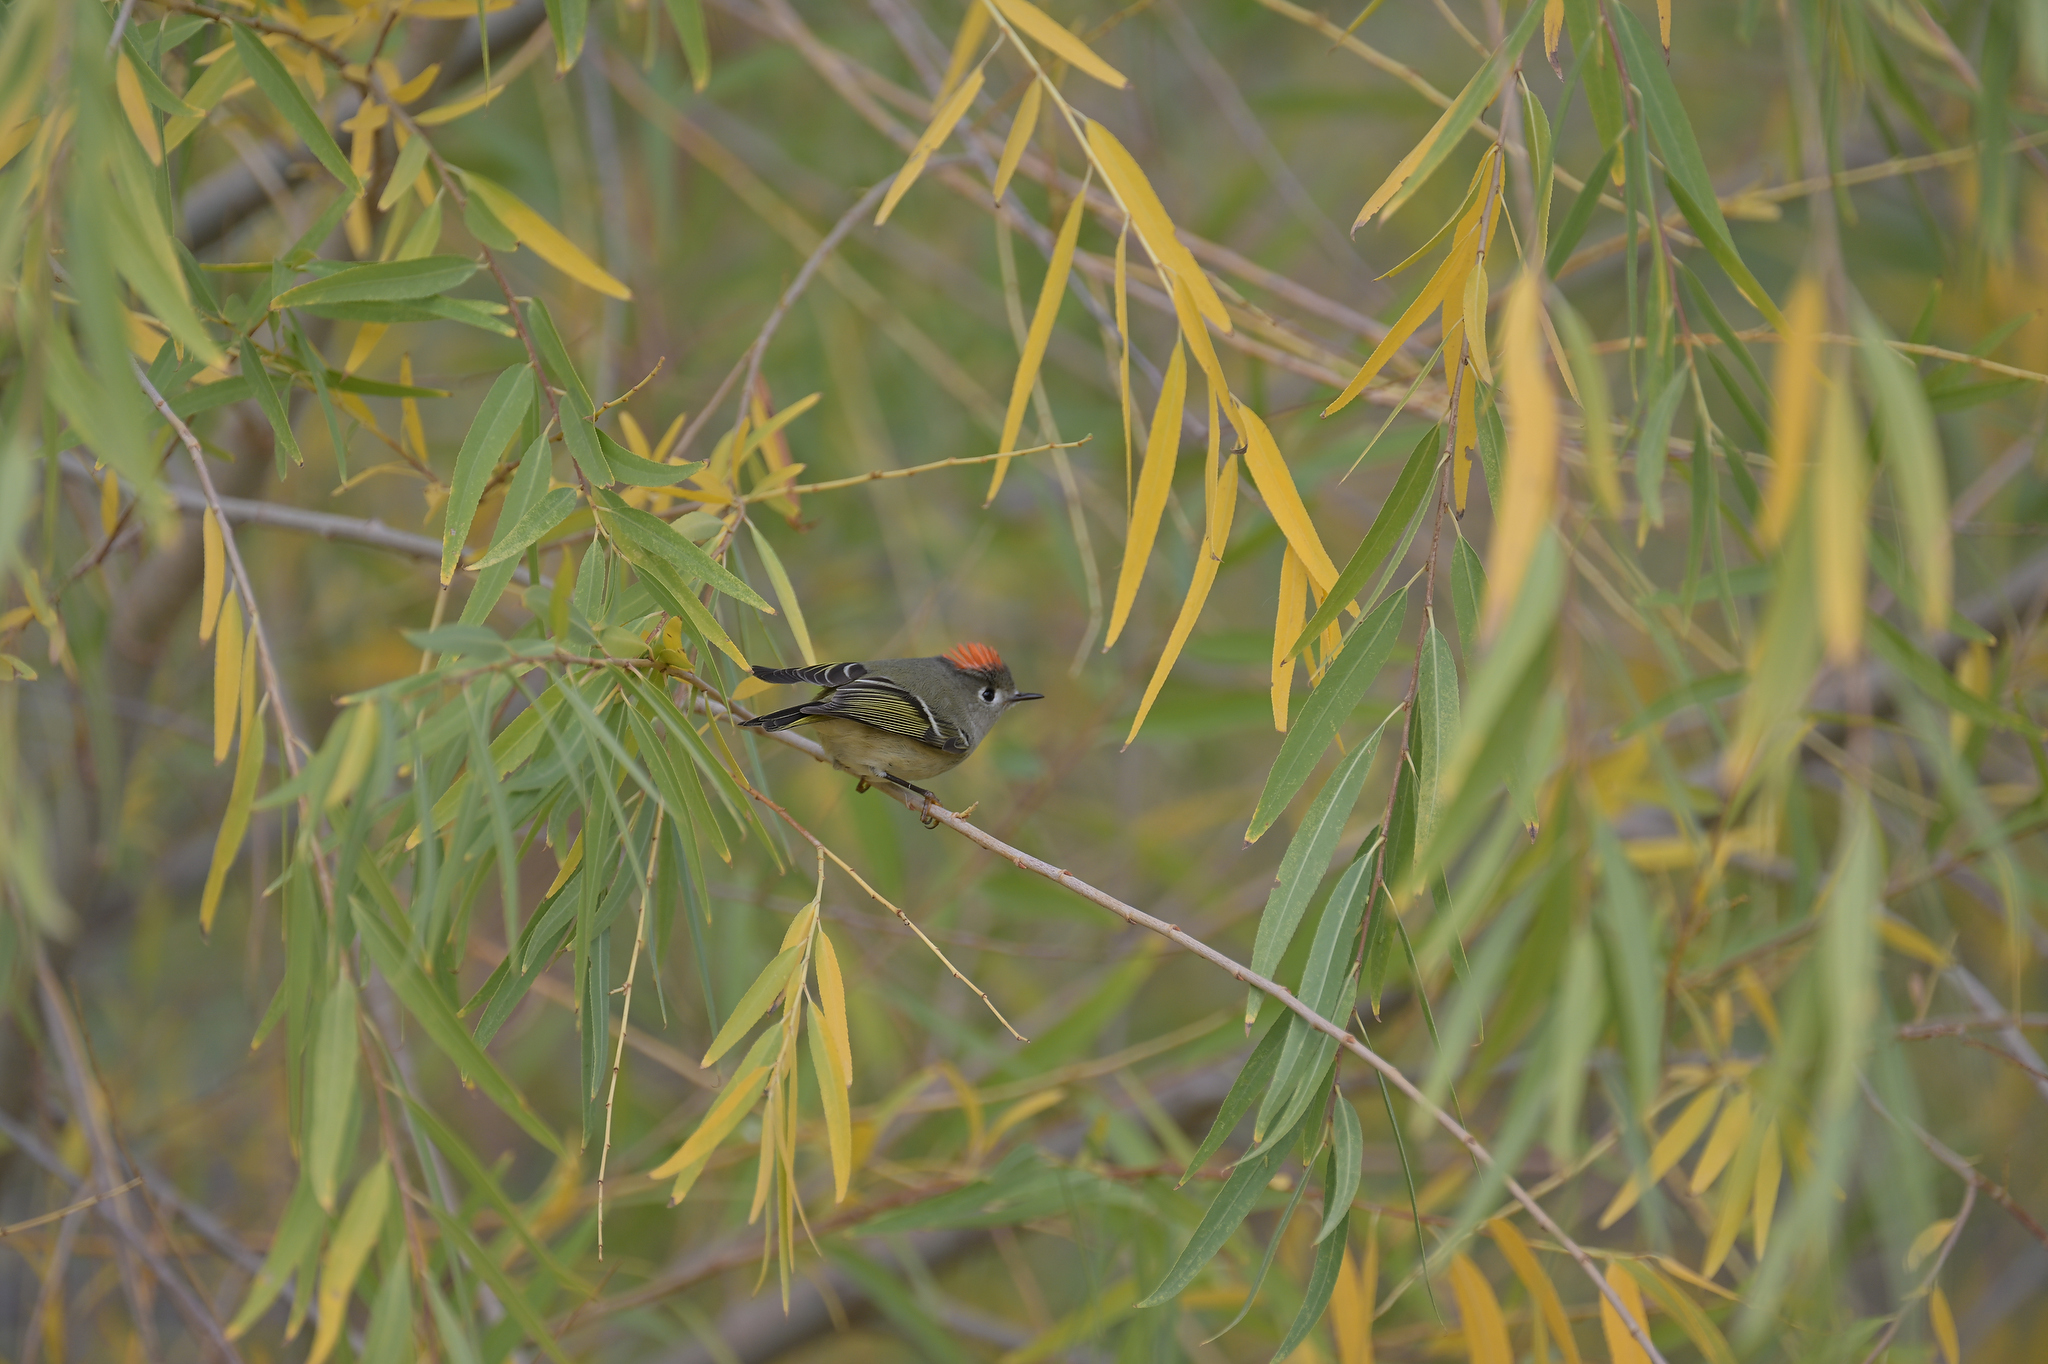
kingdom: Animalia
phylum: Chordata
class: Aves
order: Passeriformes
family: Regulidae
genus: Regulus
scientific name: Regulus calendula
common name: Ruby-crowned kinglet
